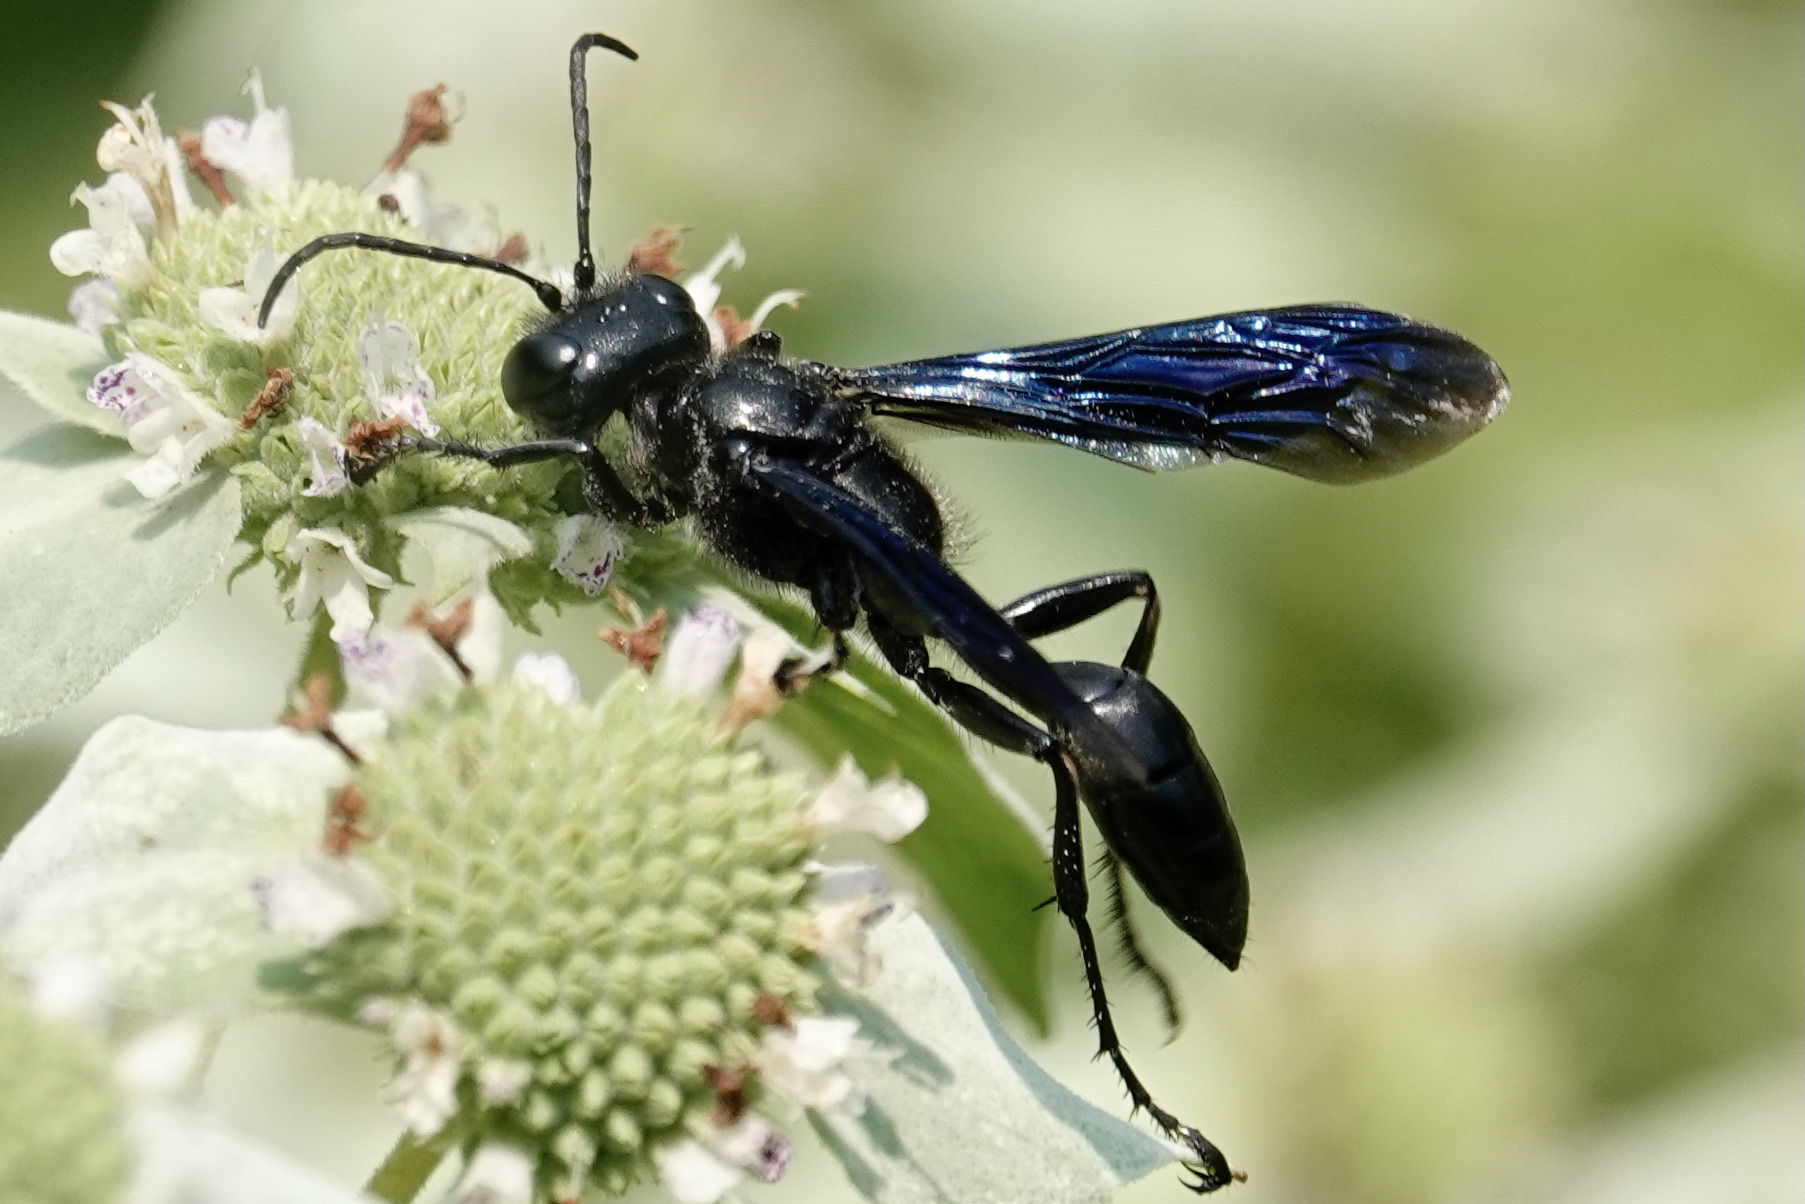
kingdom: Animalia
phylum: Arthropoda
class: Insecta
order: Hymenoptera
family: Sphecidae
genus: Isodontia
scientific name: Isodontia philadelphica
